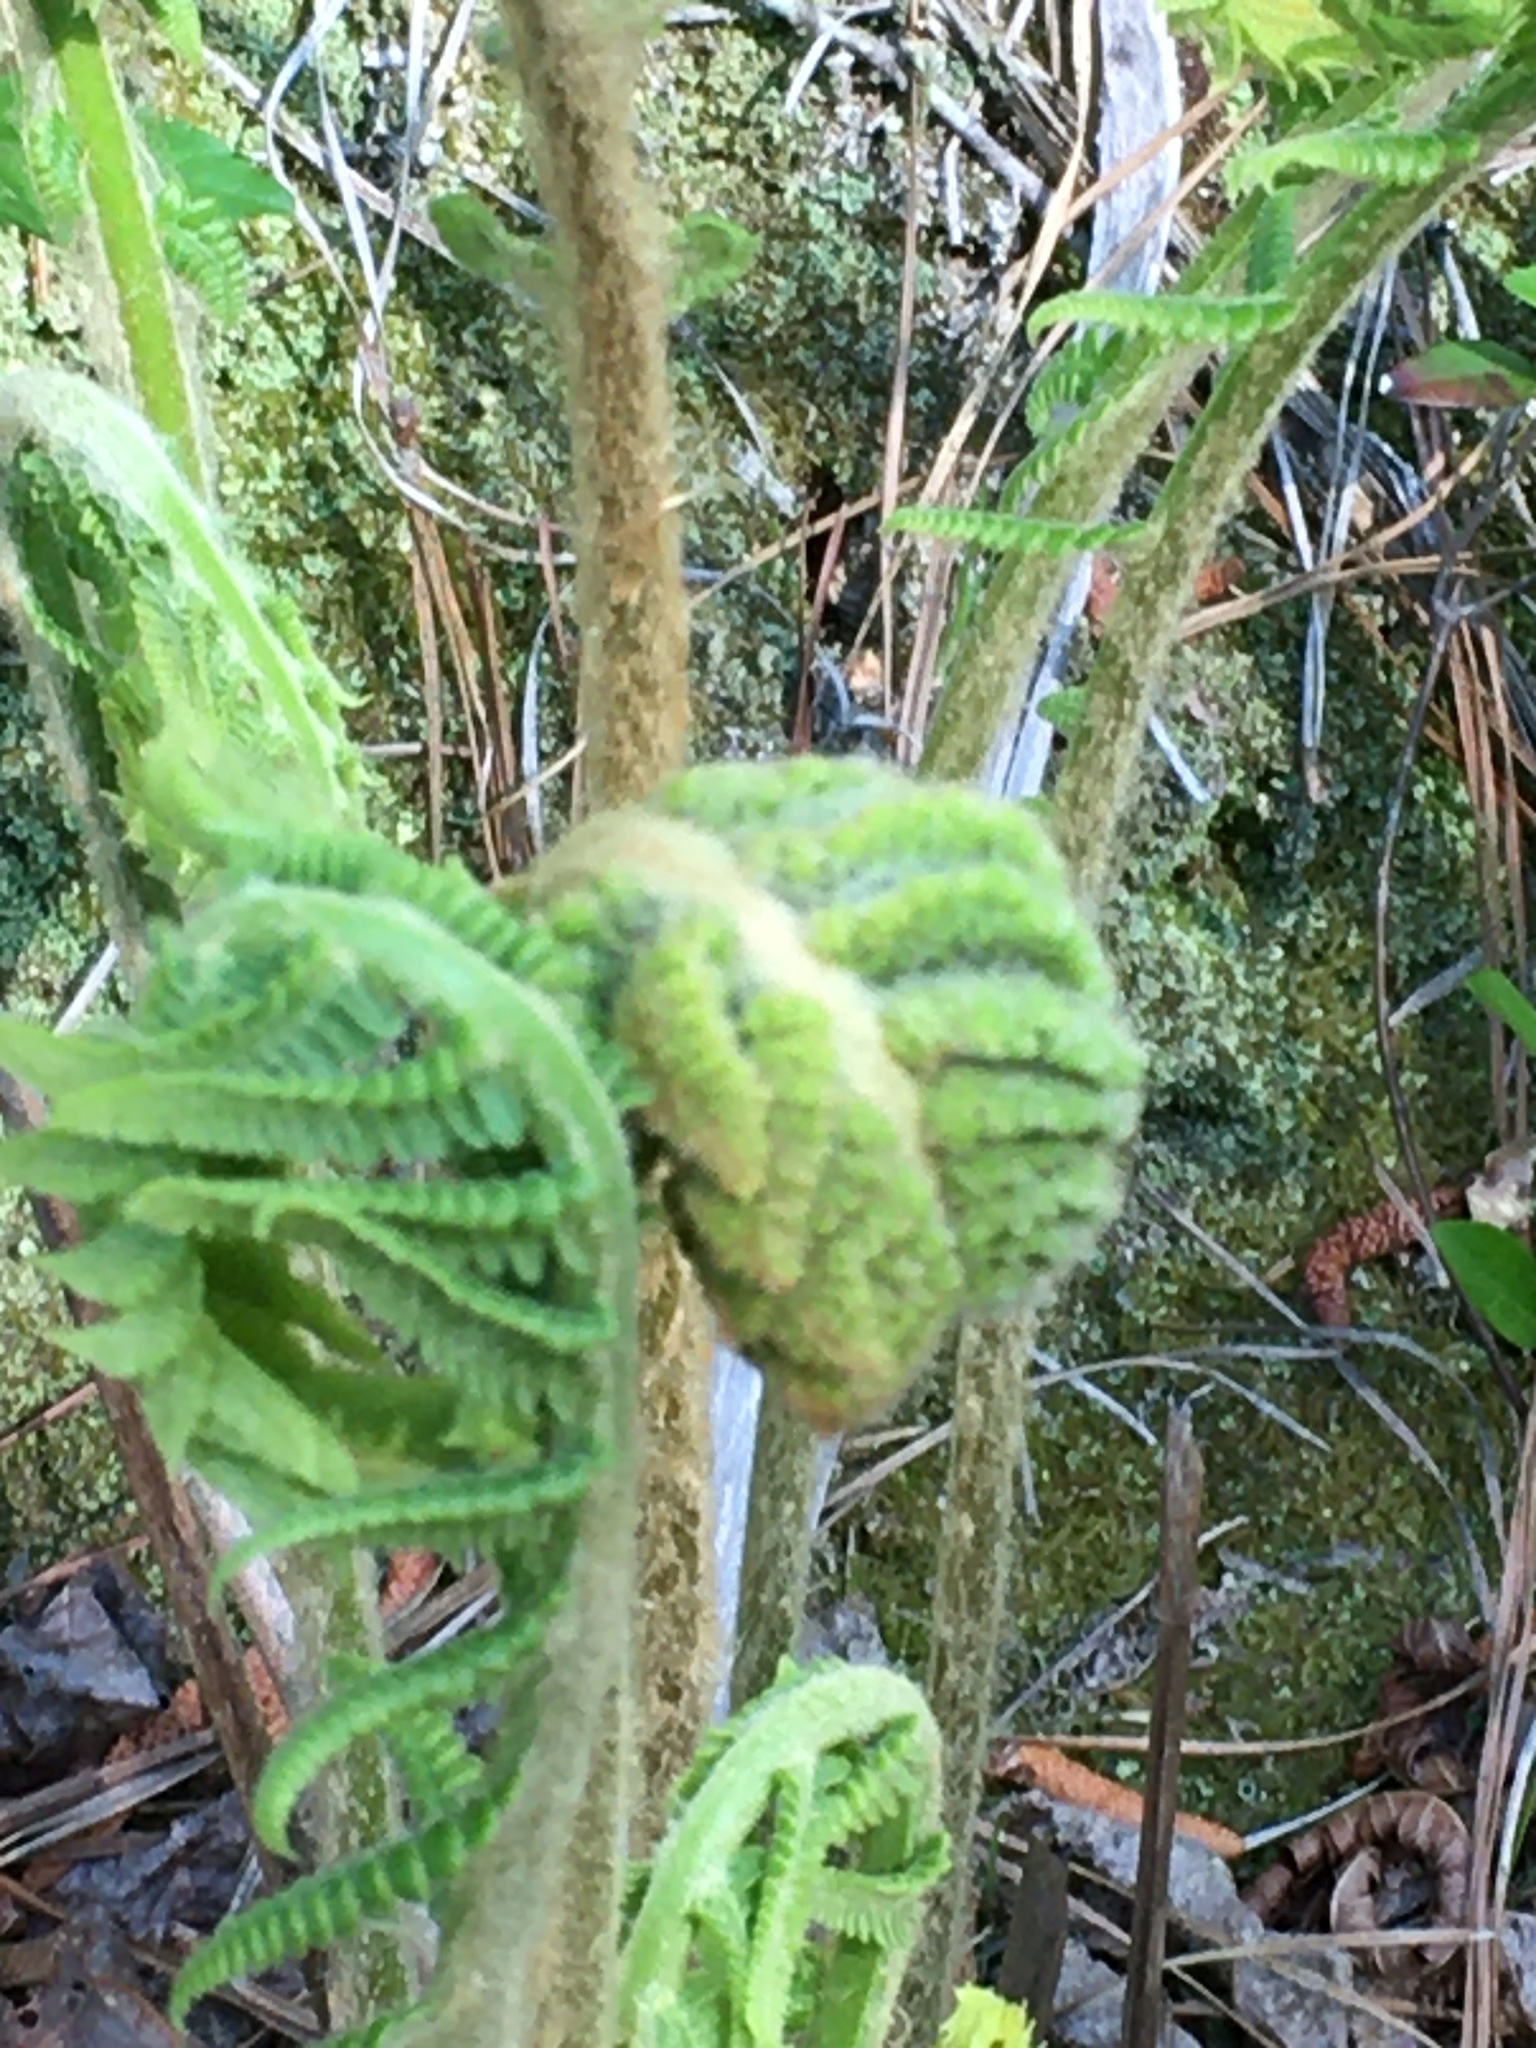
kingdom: Plantae
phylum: Tracheophyta
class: Polypodiopsida
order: Osmundales
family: Osmundaceae
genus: Osmundastrum
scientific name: Osmundastrum cinnamomeum
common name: Cinnamon fern
